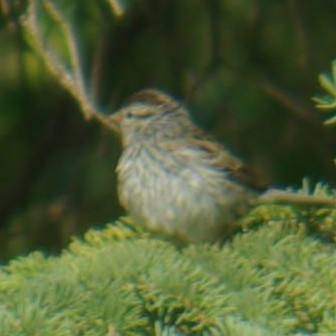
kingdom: Animalia
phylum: Chordata
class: Aves
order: Passeriformes
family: Passerellidae
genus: Spizella
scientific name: Spizella passerina
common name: Chipping sparrow
